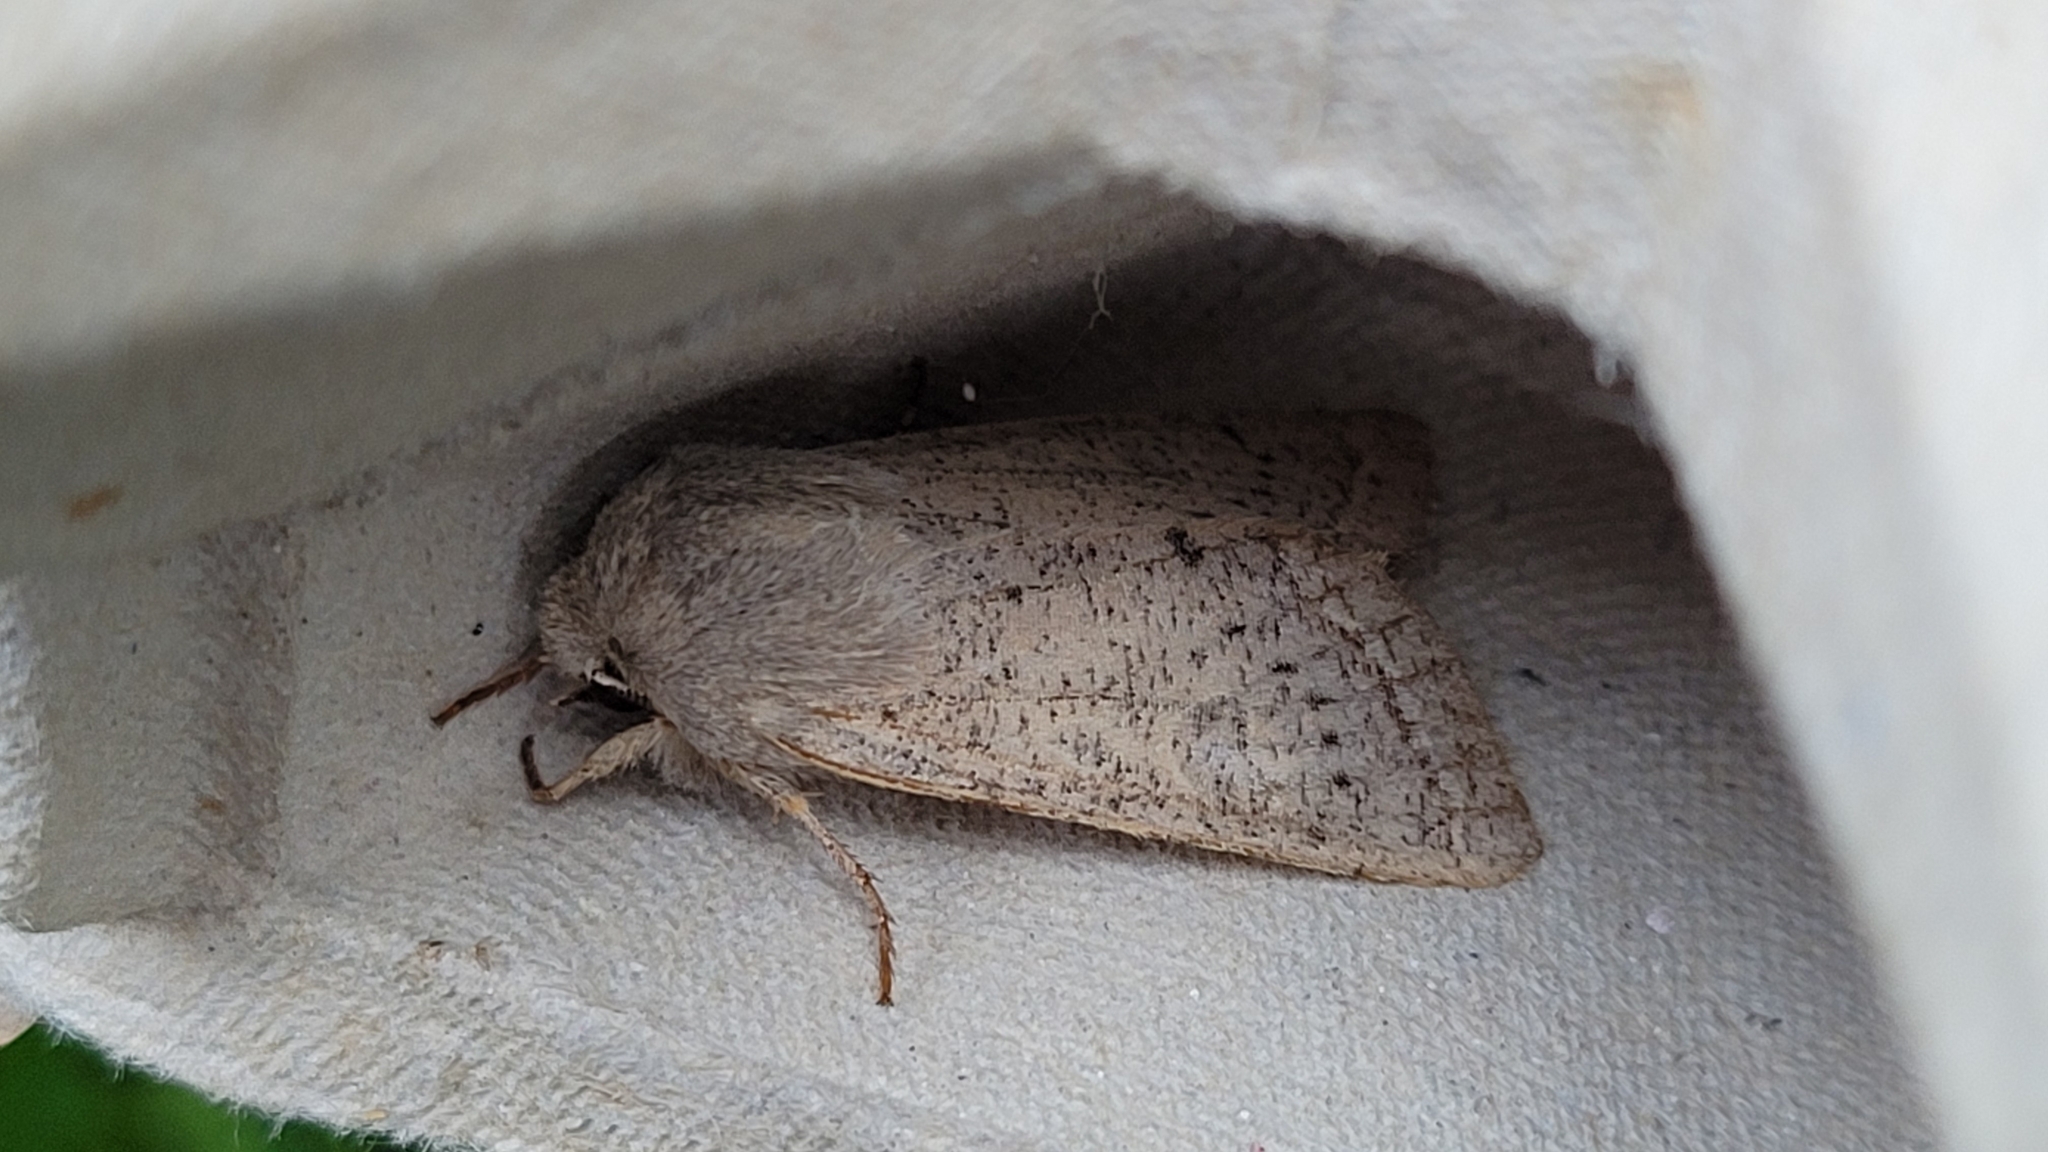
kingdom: Animalia
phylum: Arthropoda
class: Insecta
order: Lepidoptera
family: Noctuidae
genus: Orthosia
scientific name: Orthosia gracilis
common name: Powdered quaker
